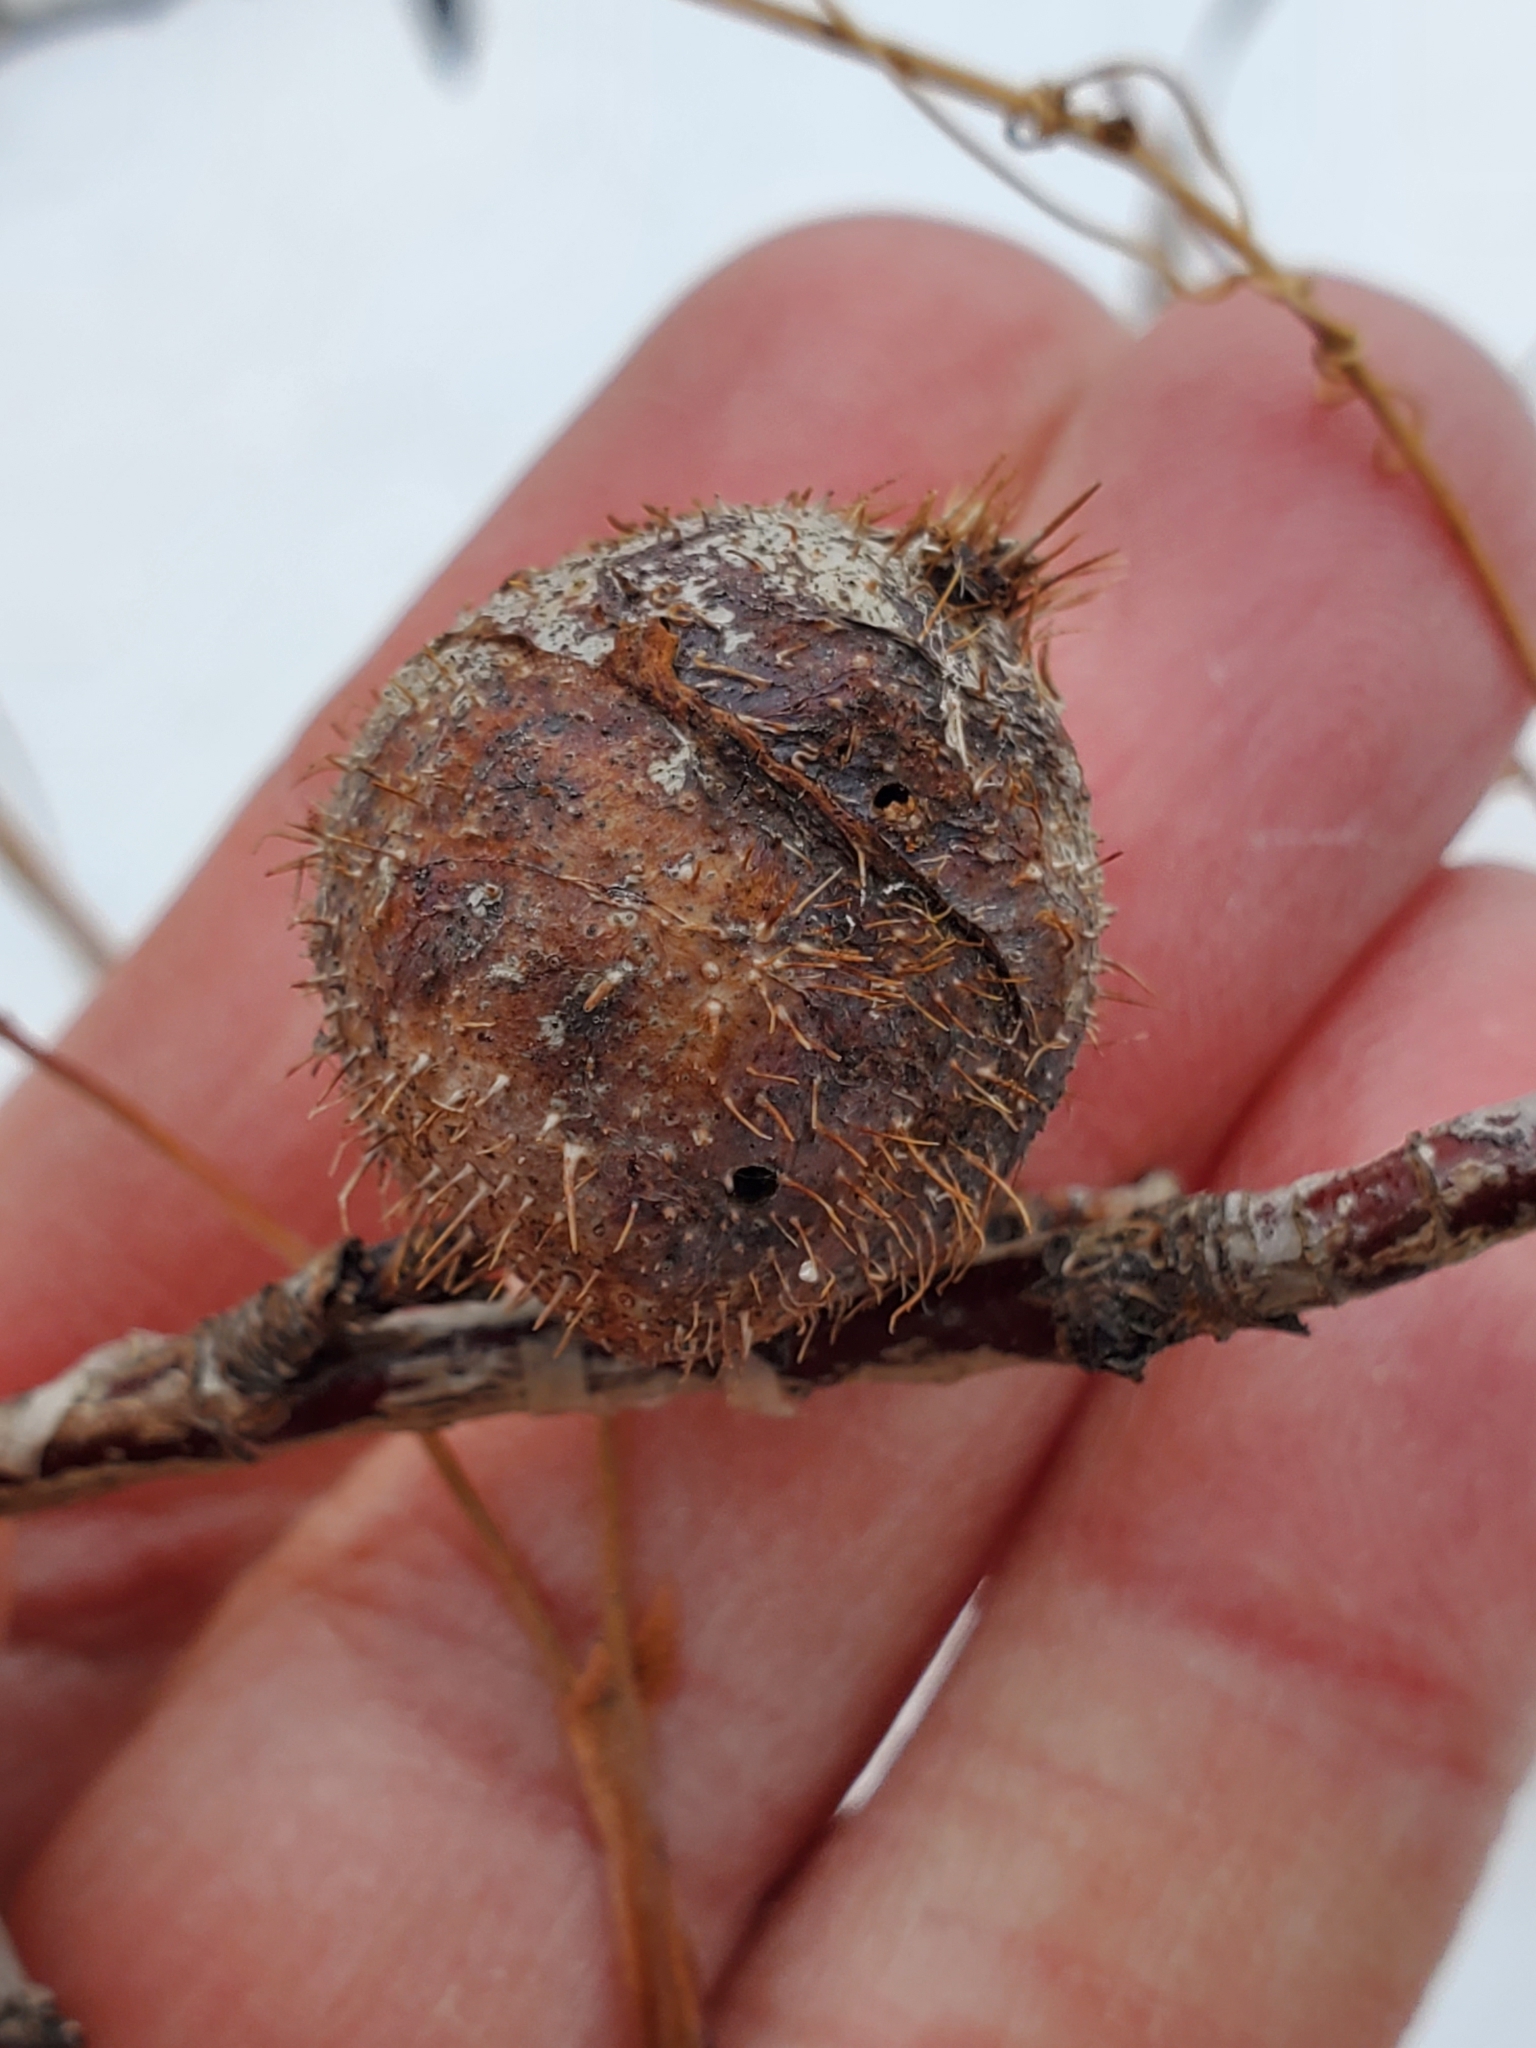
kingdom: Animalia
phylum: Arthropoda
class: Insecta
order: Hymenoptera
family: Cynipidae
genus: Diplolepis
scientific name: Diplolepis spinosa
